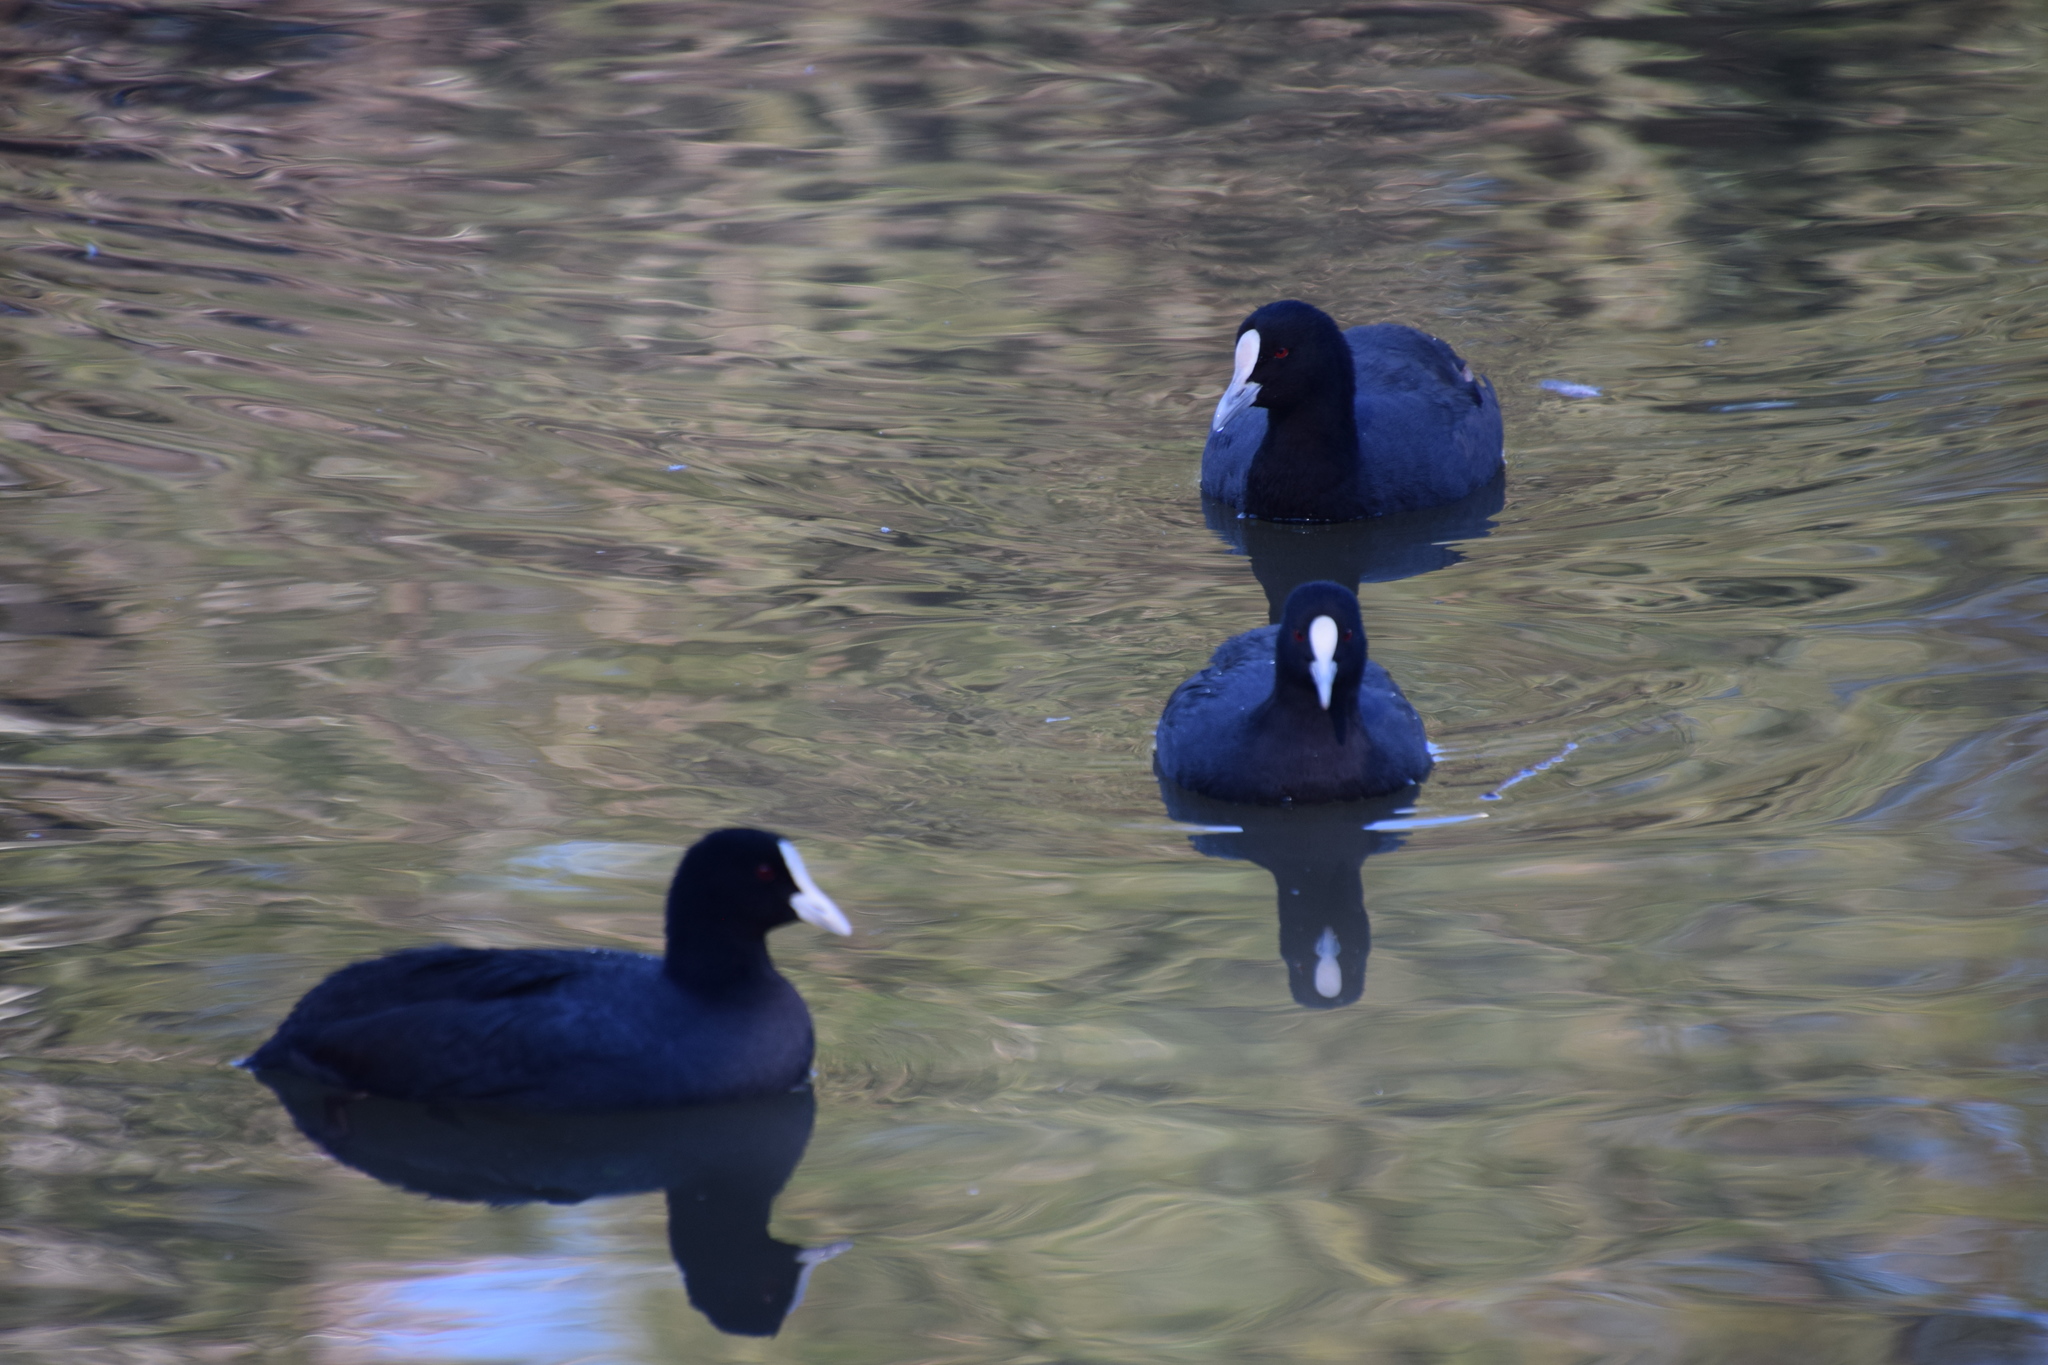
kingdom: Animalia
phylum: Chordata
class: Aves
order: Gruiformes
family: Rallidae
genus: Fulica
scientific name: Fulica atra
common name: Eurasian coot
